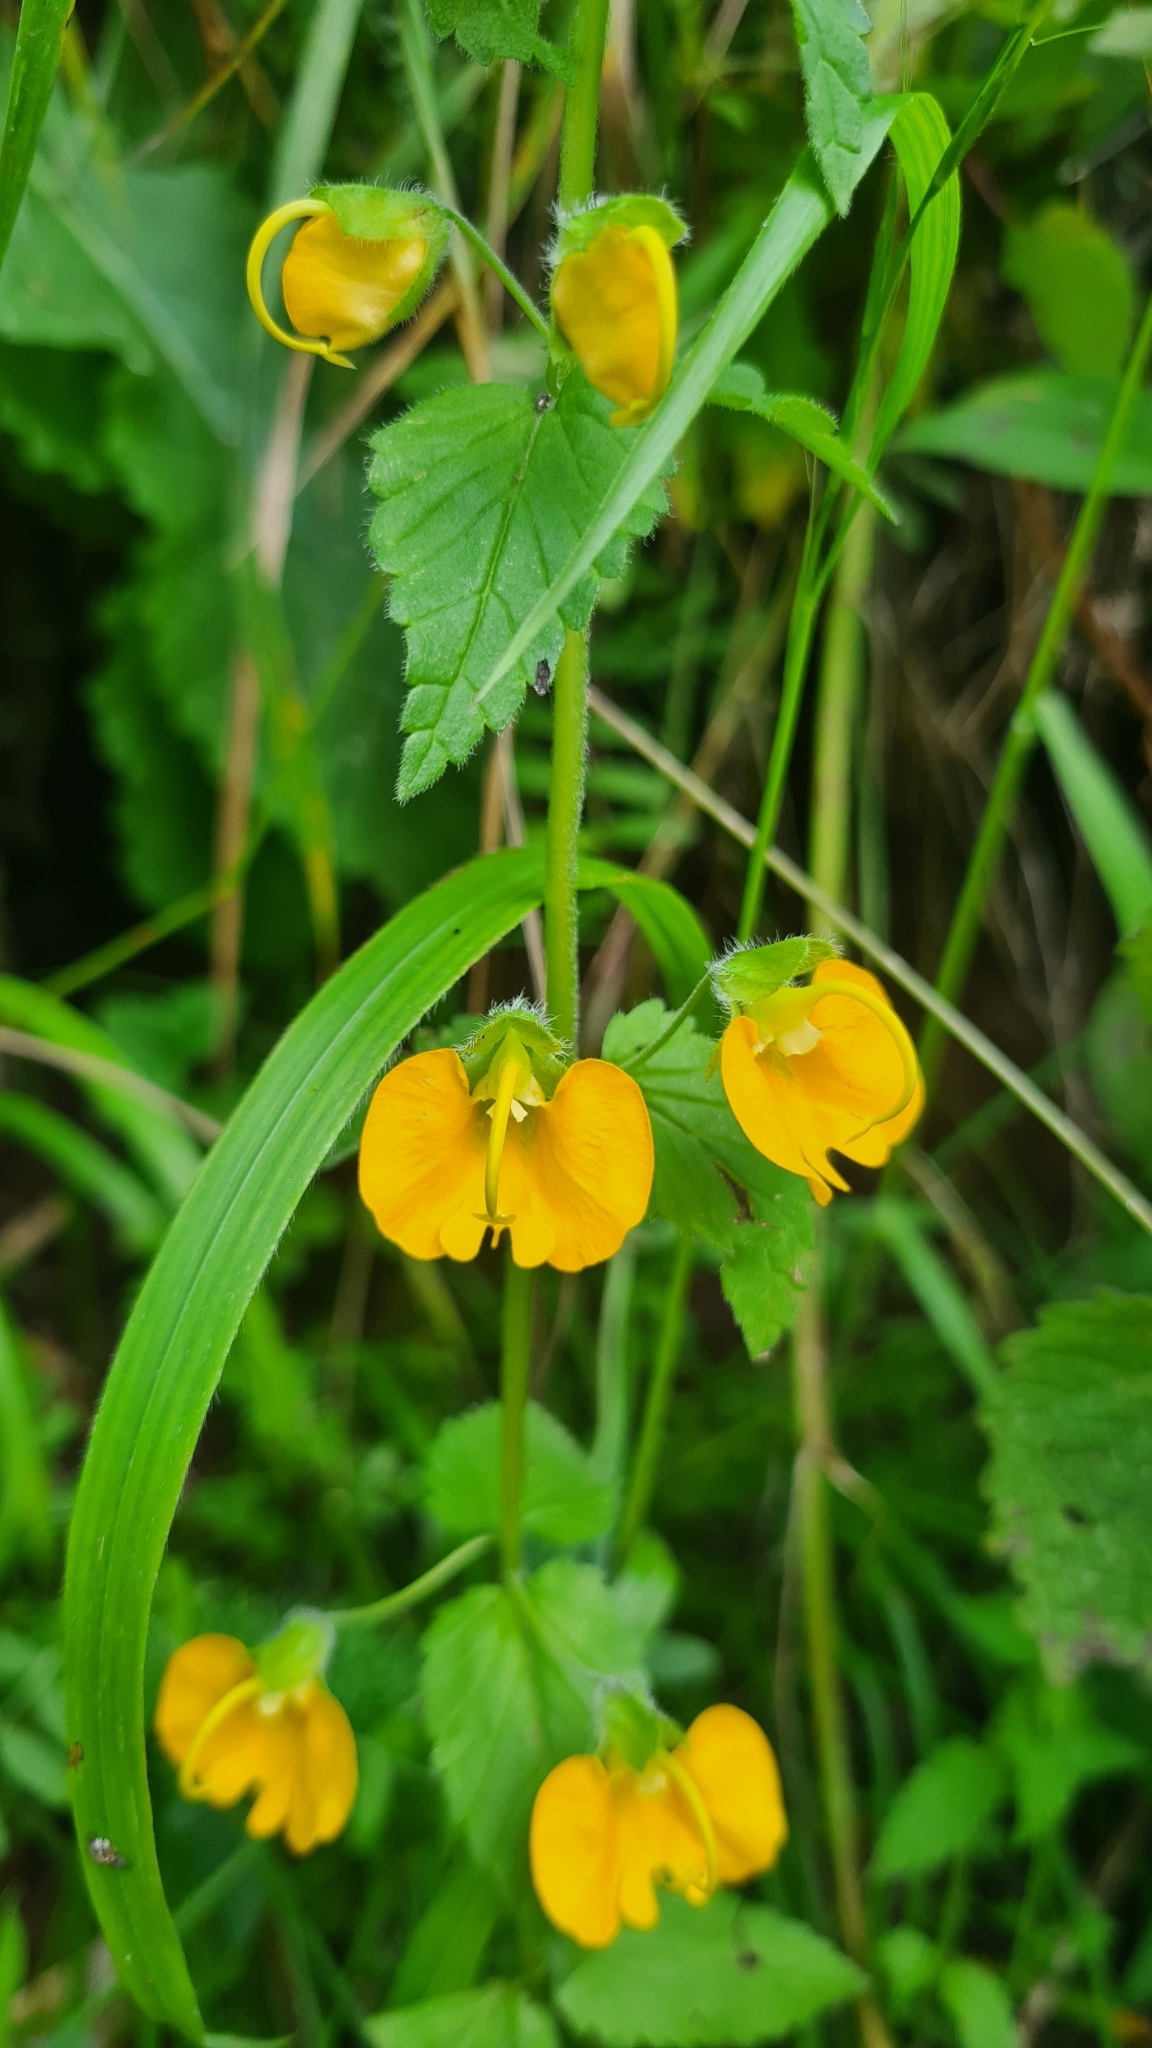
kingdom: Plantae
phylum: Tracheophyta
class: Magnoliopsida
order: Lamiales
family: Orobanchaceae
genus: Rhynchocorys
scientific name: Rhynchocorys orientalis
